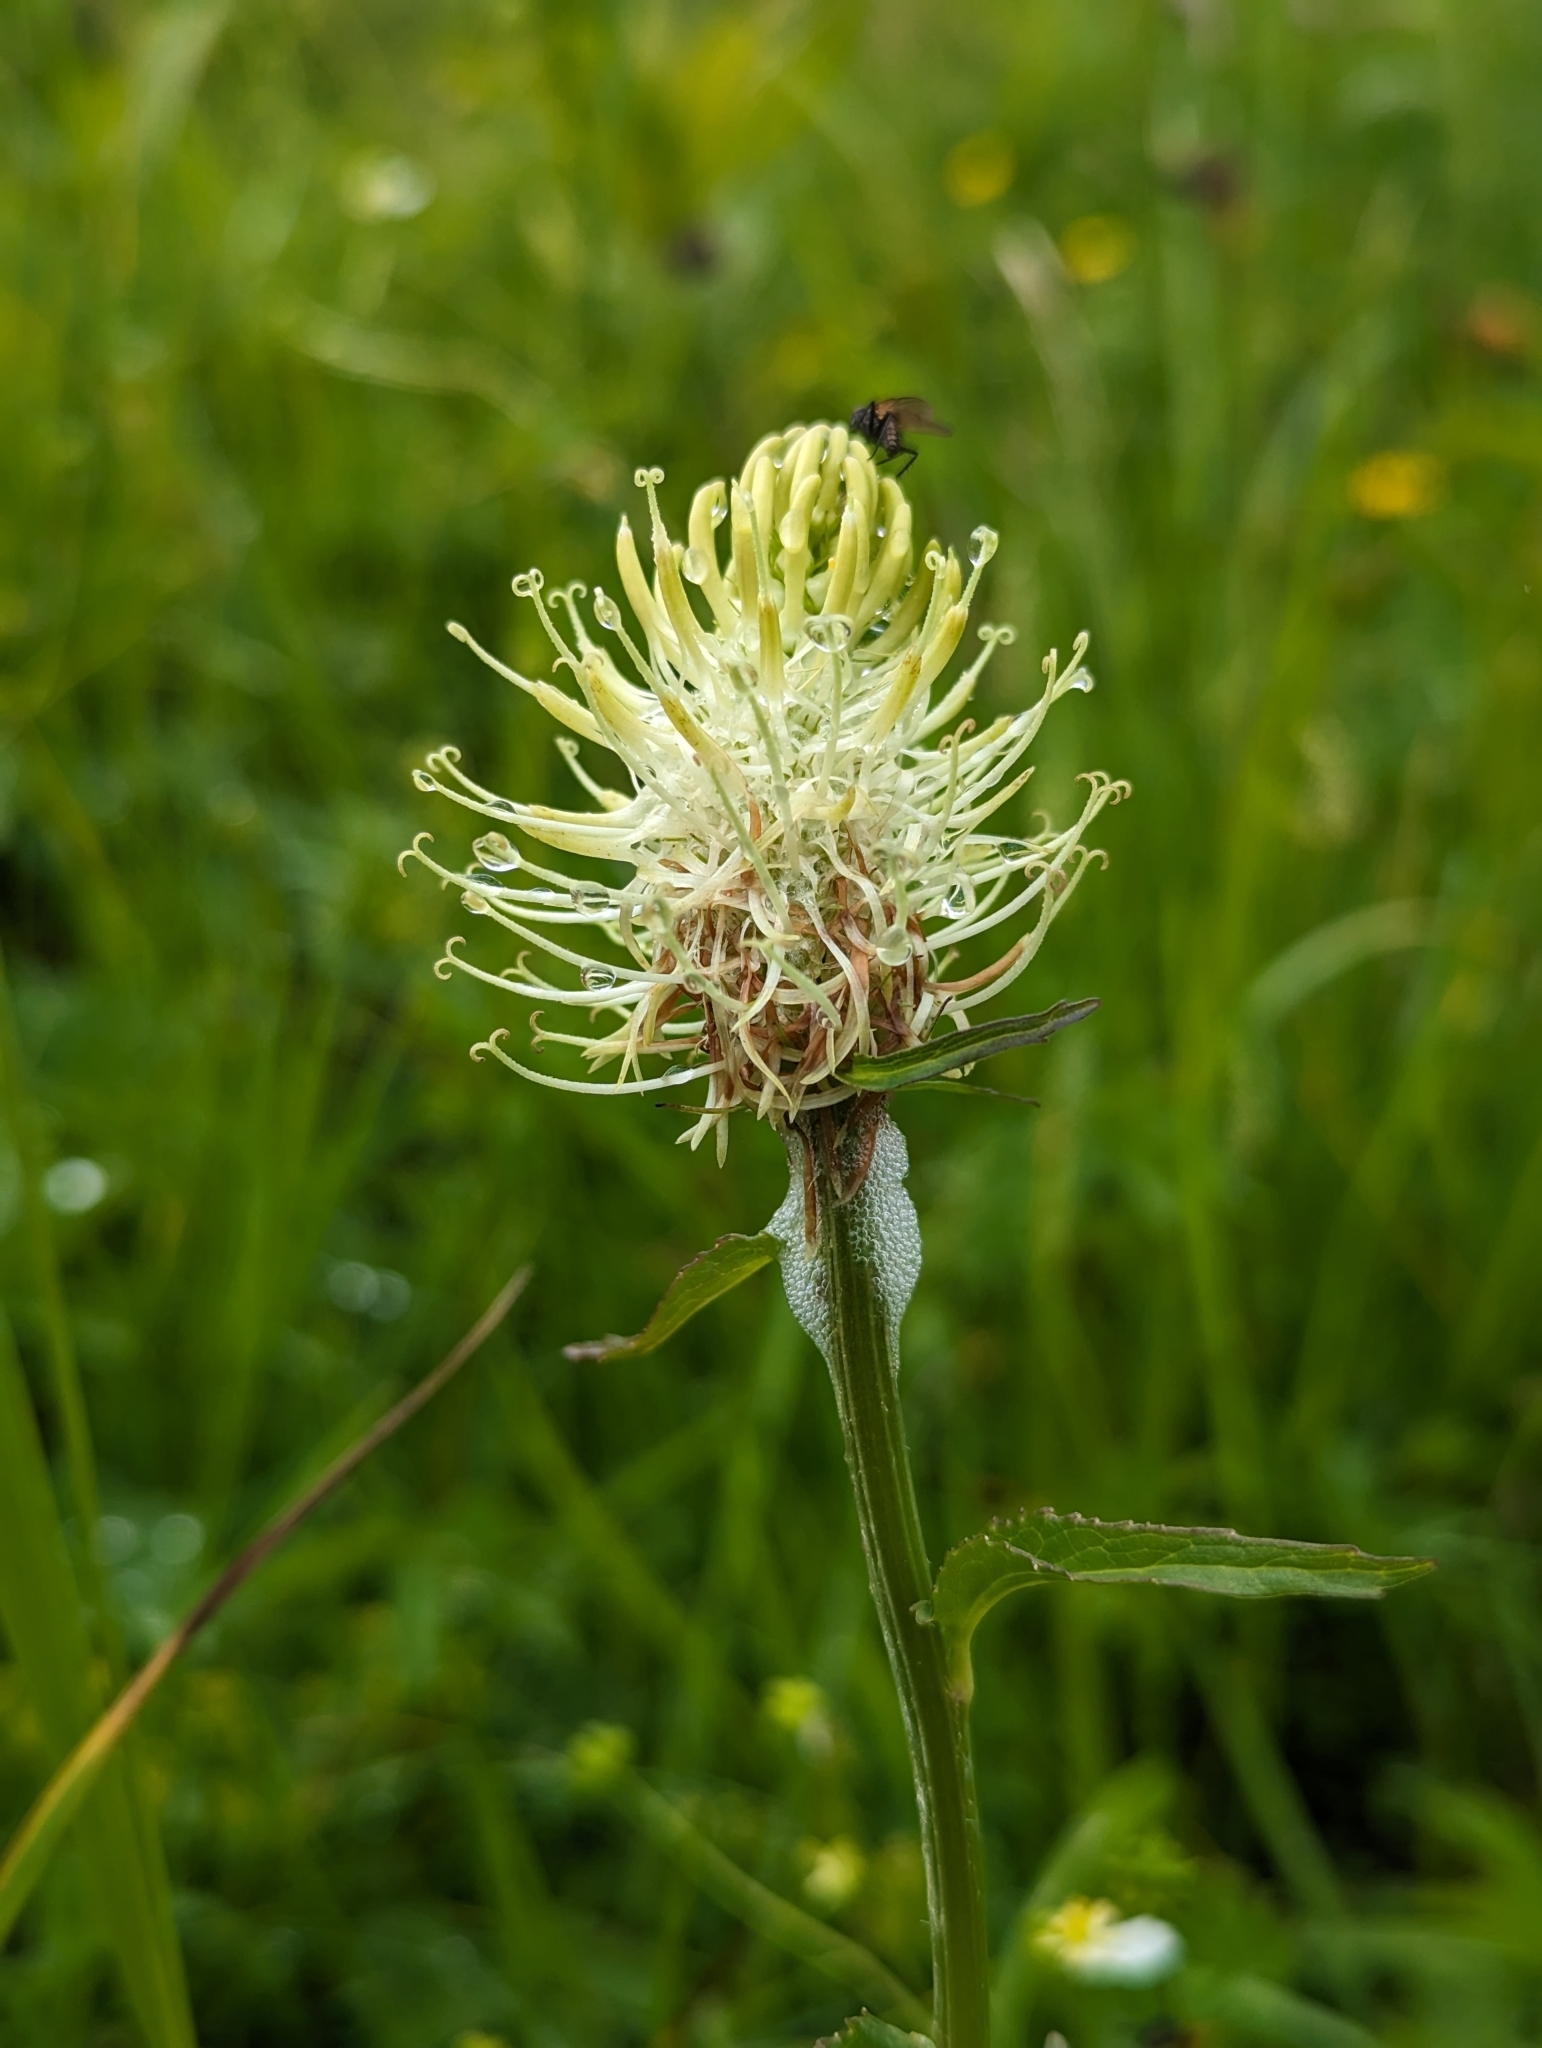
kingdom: Plantae
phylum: Tracheophyta
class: Magnoliopsida
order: Asterales
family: Campanulaceae
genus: Phyteuma
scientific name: Phyteuma spicatum
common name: Spiked rampion
